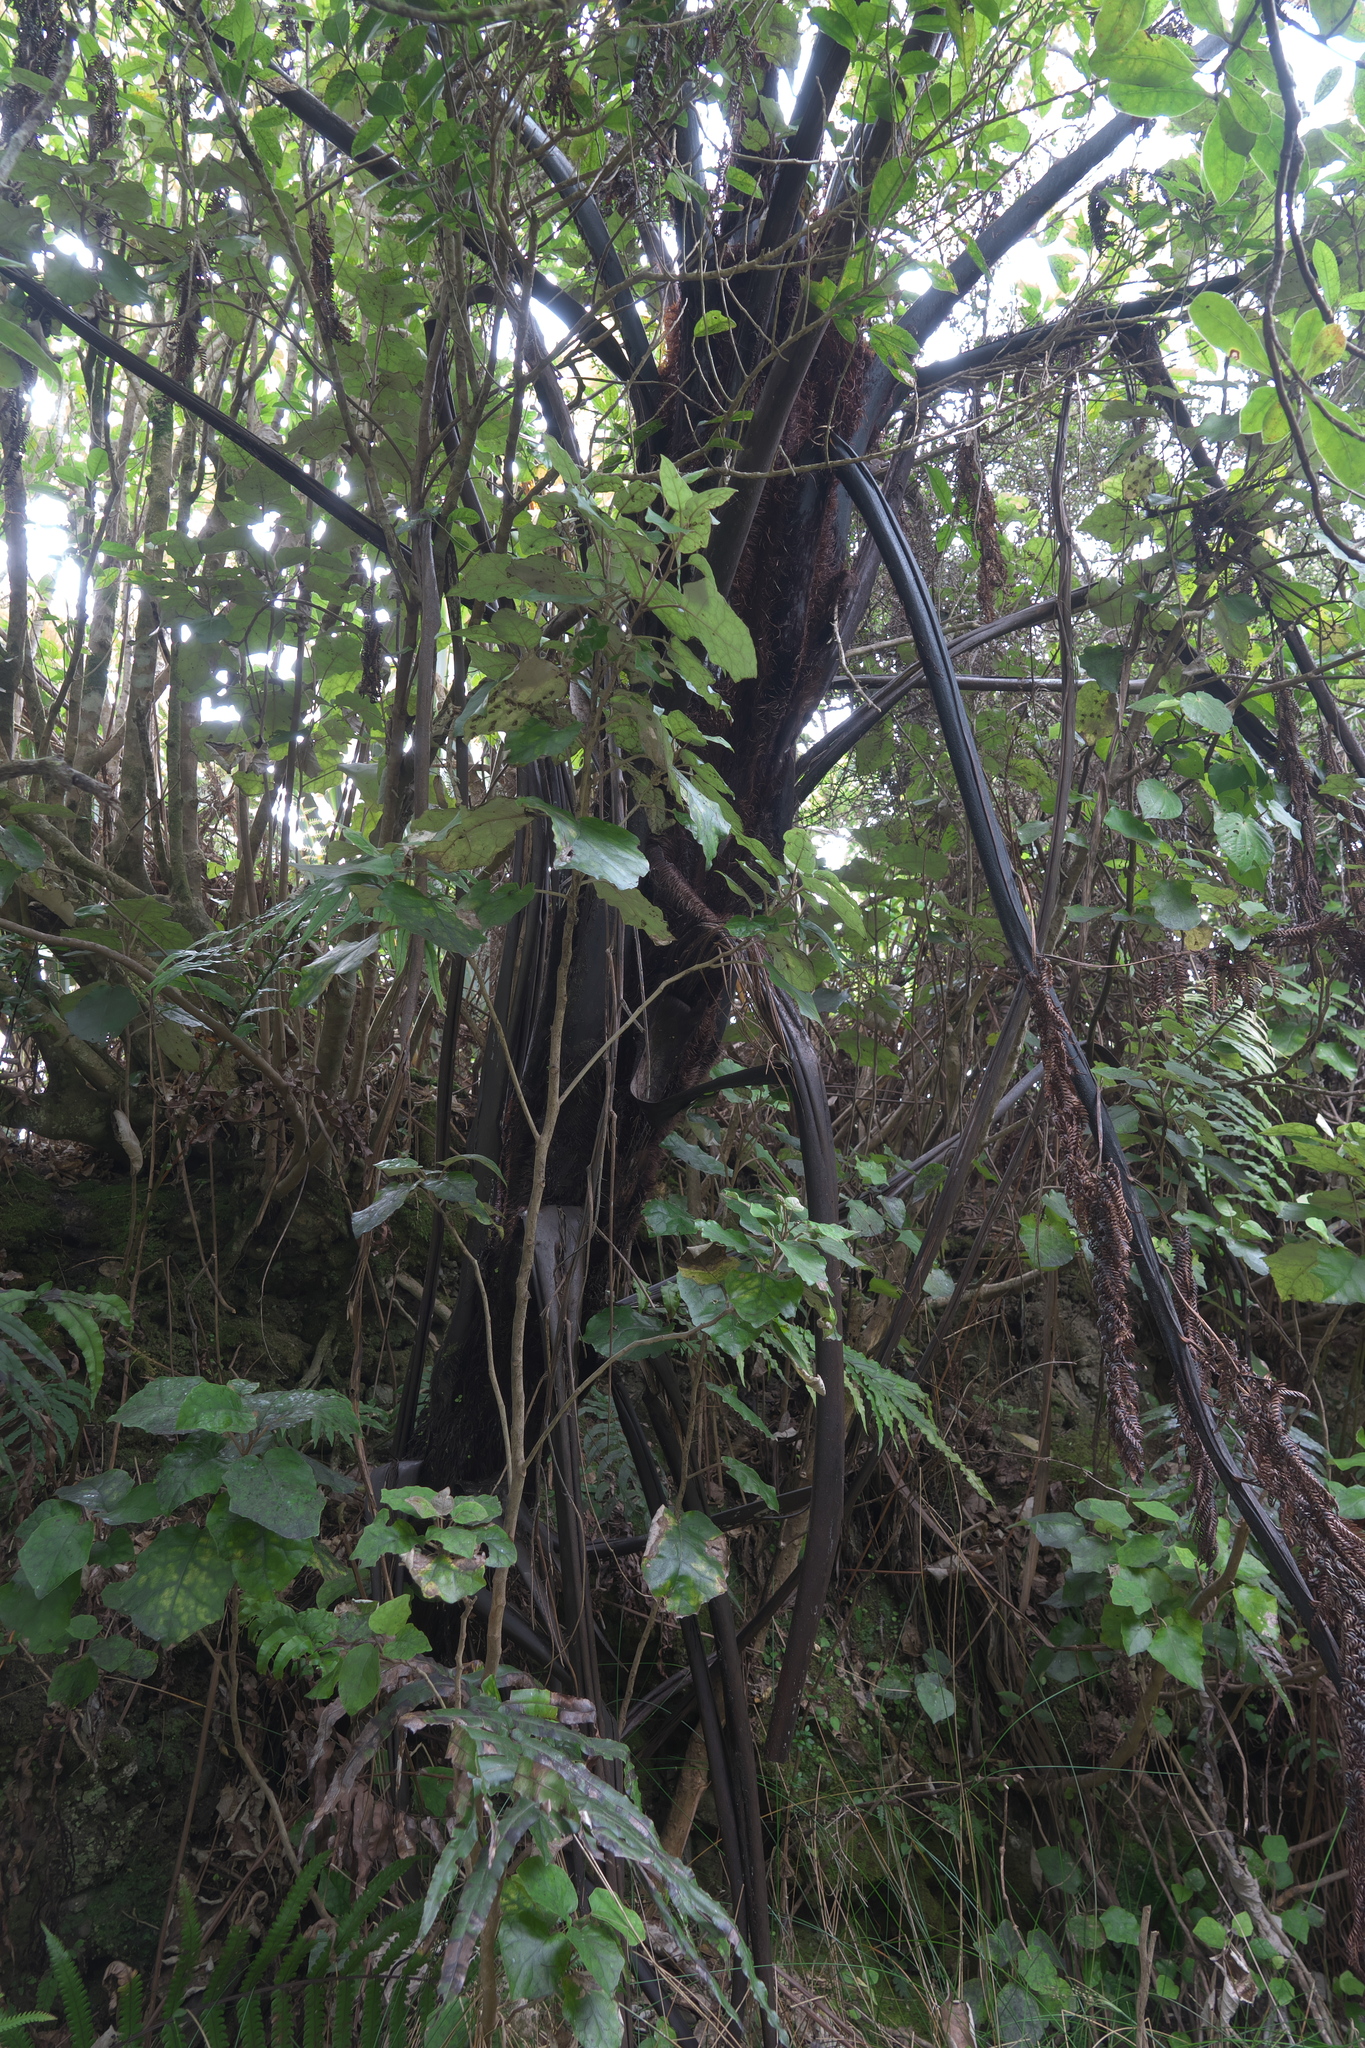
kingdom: Plantae
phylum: Tracheophyta
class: Polypodiopsida
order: Cyatheales
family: Cyatheaceae
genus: Sphaeropteris
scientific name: Sphaeropteris medullaris
